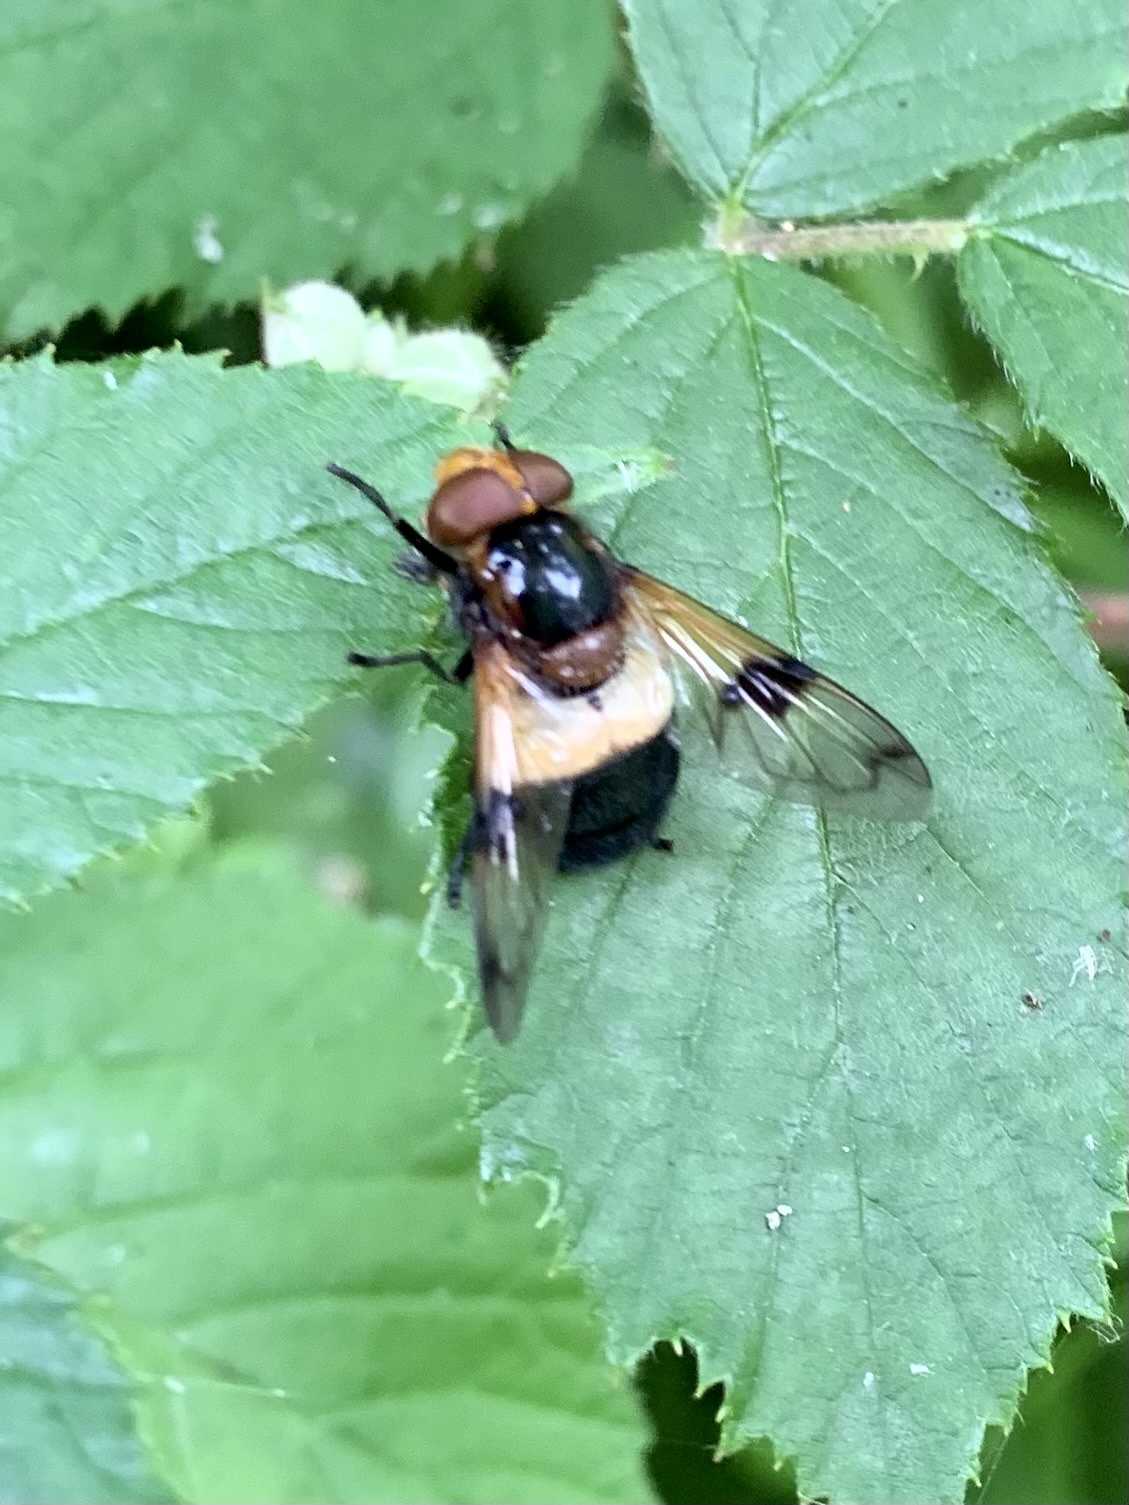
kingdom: Animalia
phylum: Arthropoda
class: Insecta
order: Diptera
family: Syrphidae
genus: Volucella
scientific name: Volucella pellucens
